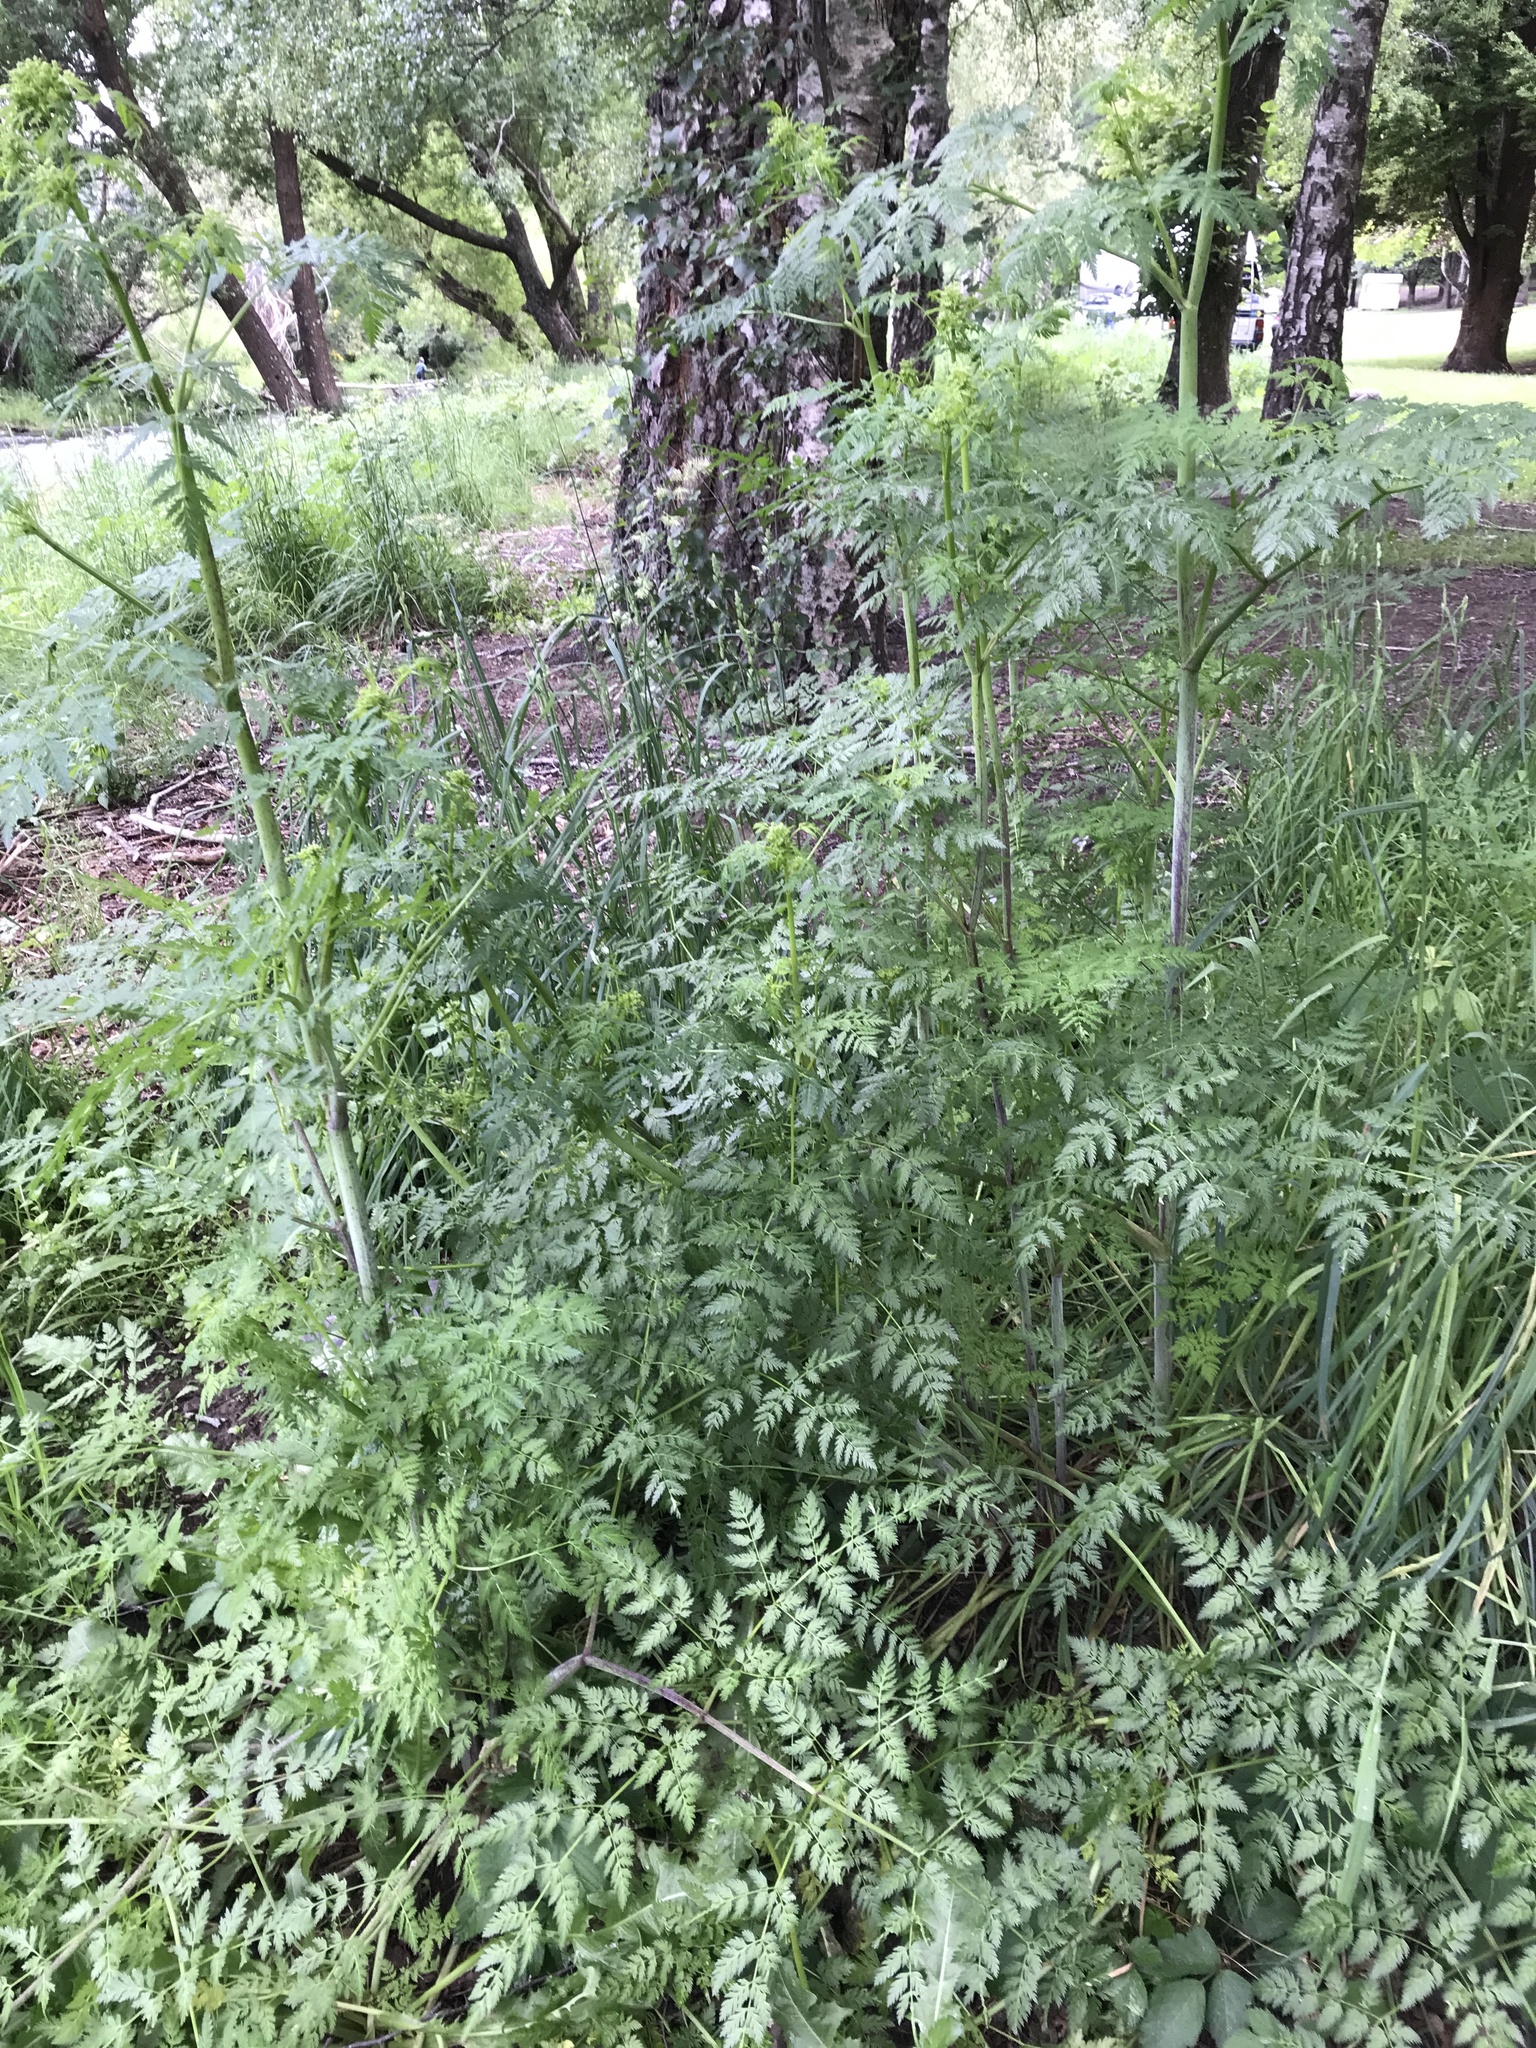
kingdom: Plantae
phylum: Tracheophyta
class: Magnoliopsida
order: Apiales
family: Apiaceae
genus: Conium
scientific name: Conium maculatum
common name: Hemlock
